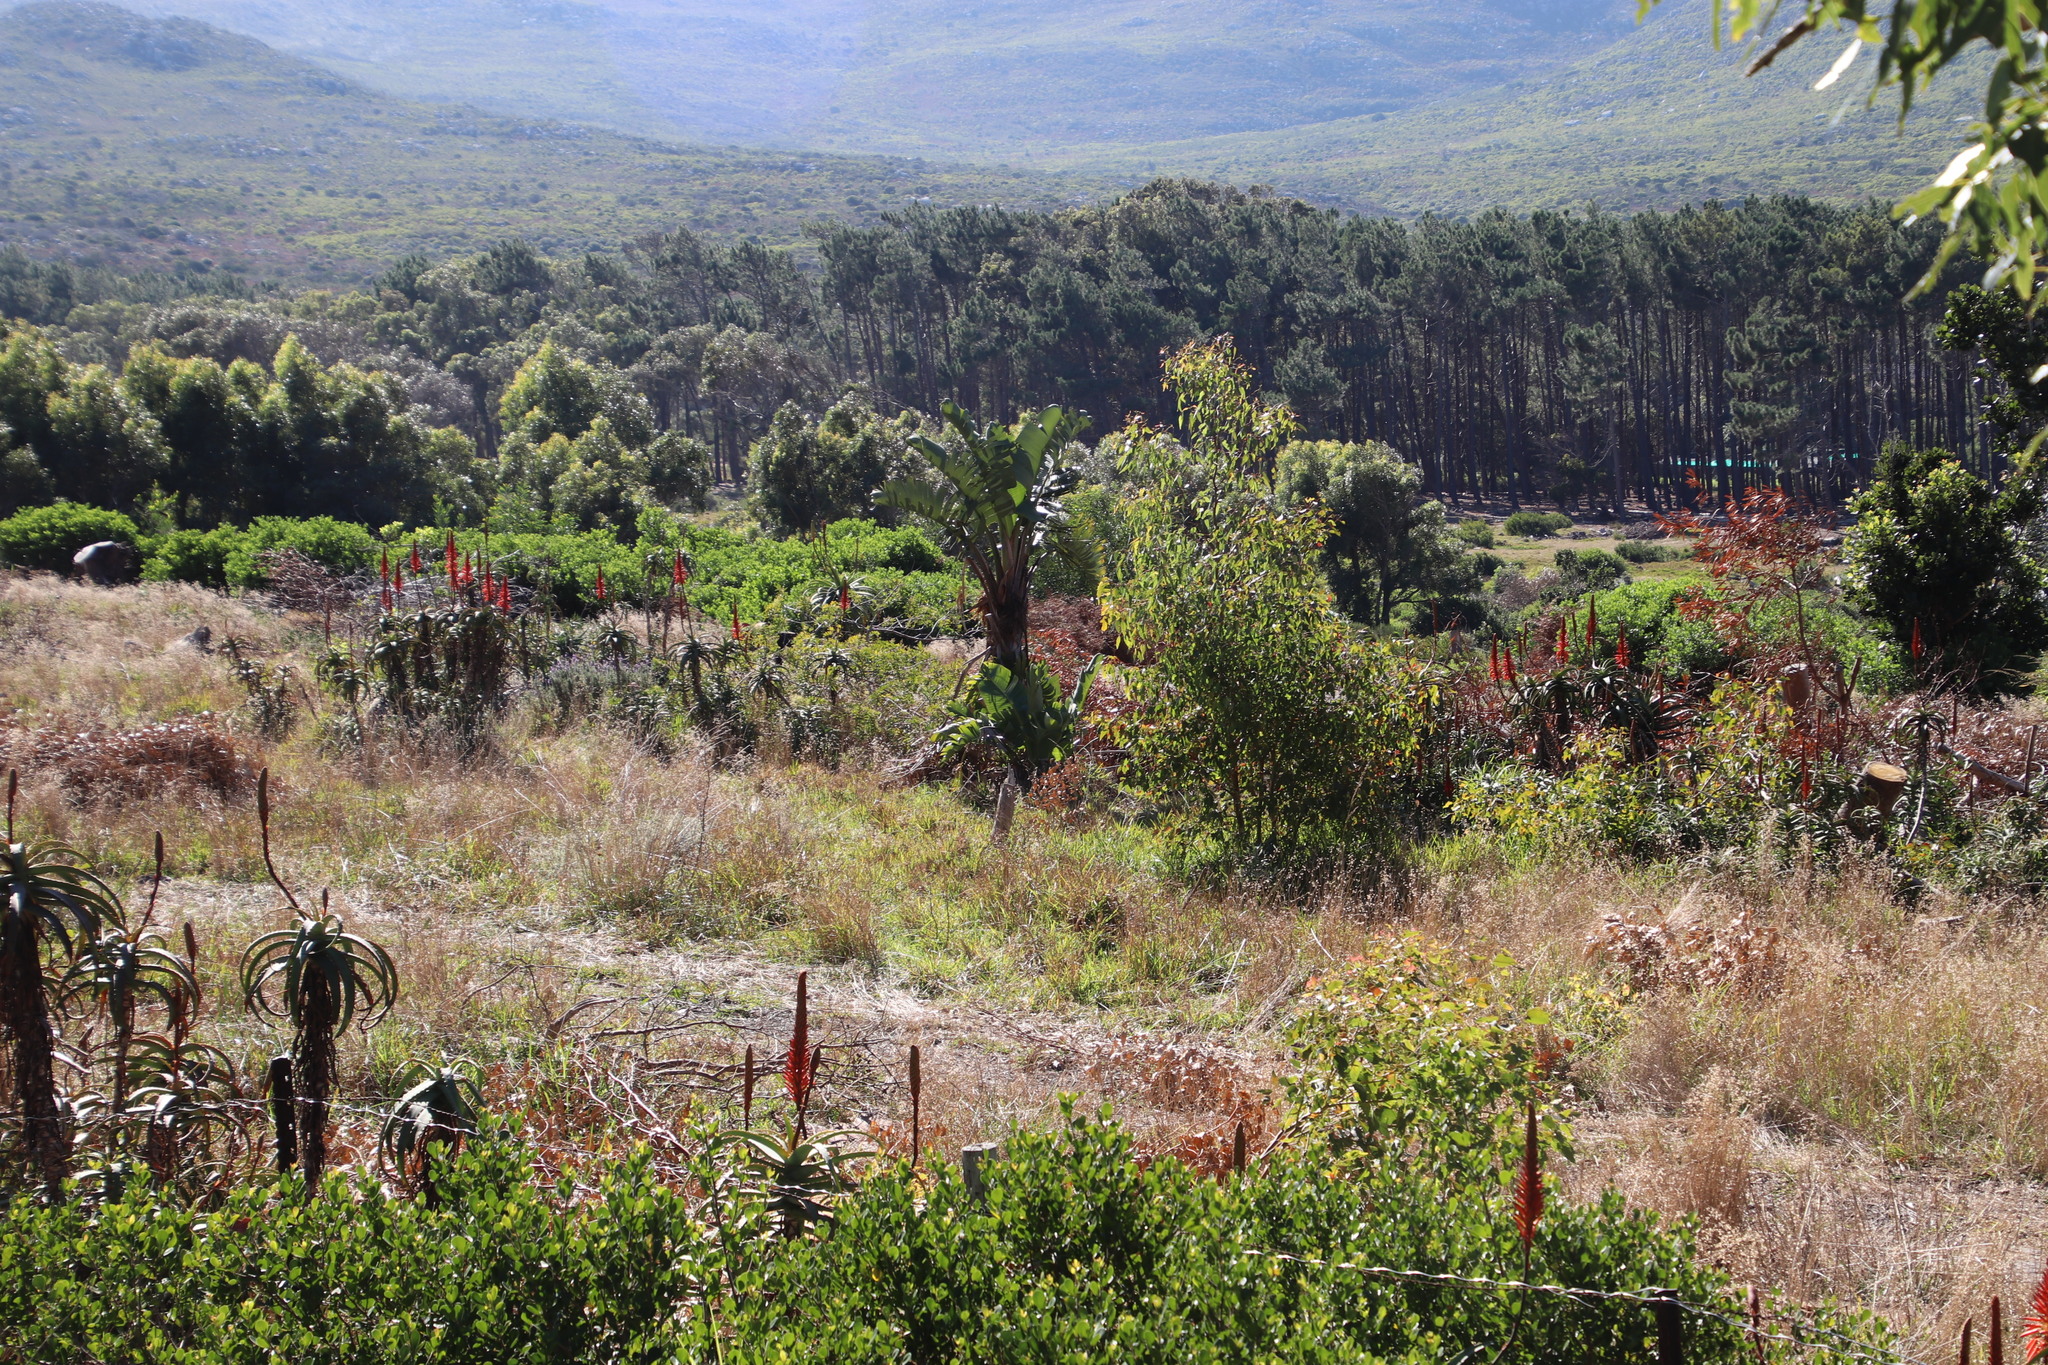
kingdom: Plantae
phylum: Tracheophyta
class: Liliopsida
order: Asparagales
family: Asphodelaceae
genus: Aloe
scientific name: Aloe arborescens
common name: Candelabra aloe
